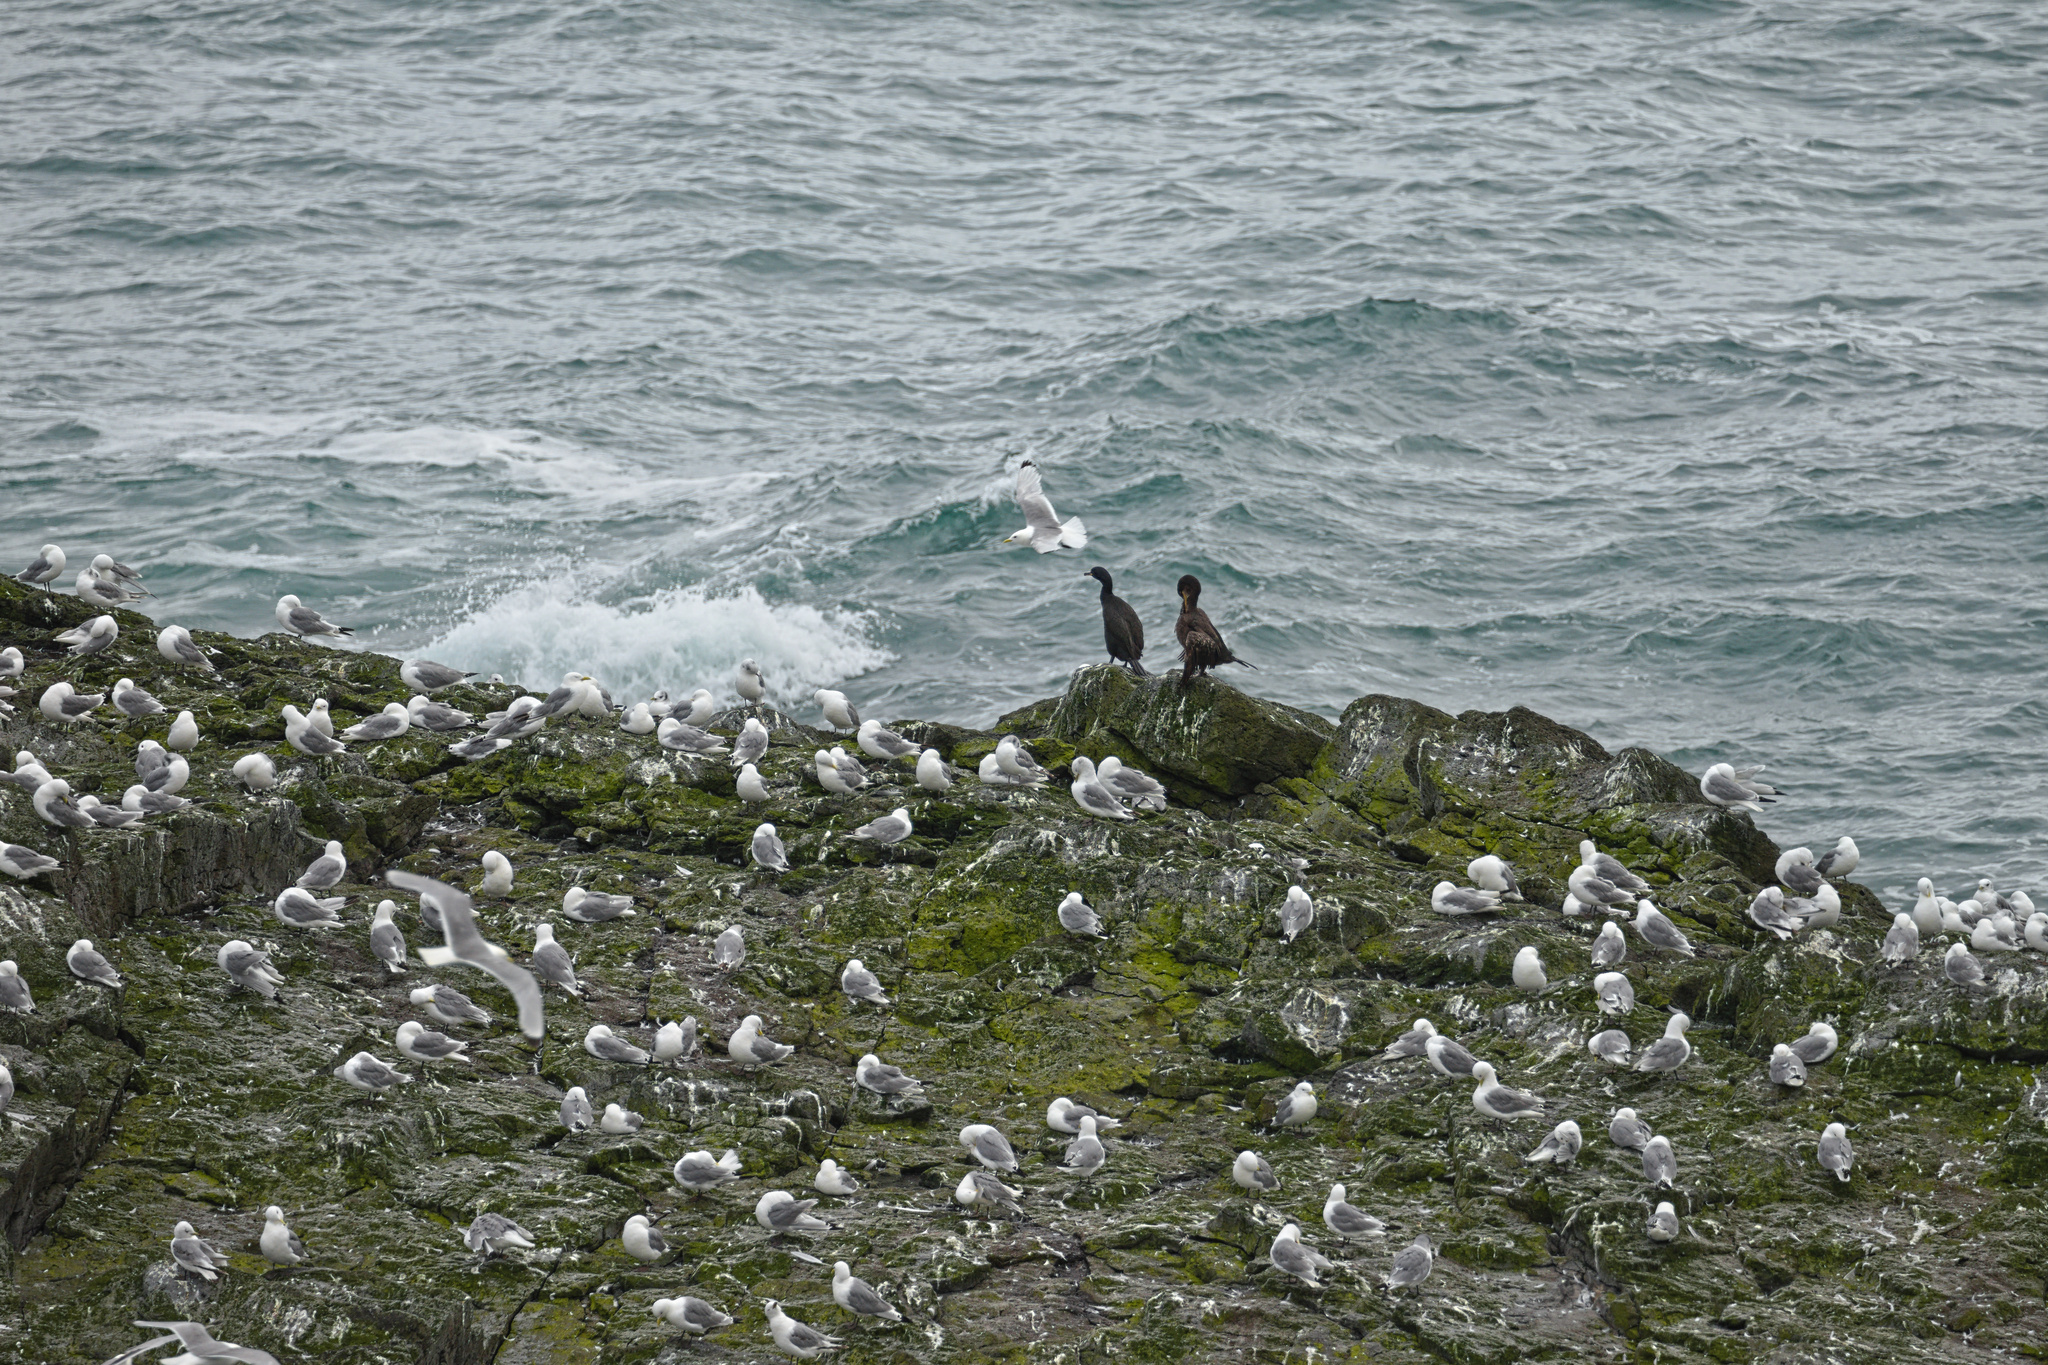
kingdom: Animalia
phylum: Chordata
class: Aves
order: Charadriiformes
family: Laridae
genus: Rissa
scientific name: Rissa tridactyla
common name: Black-legged kittiwake
